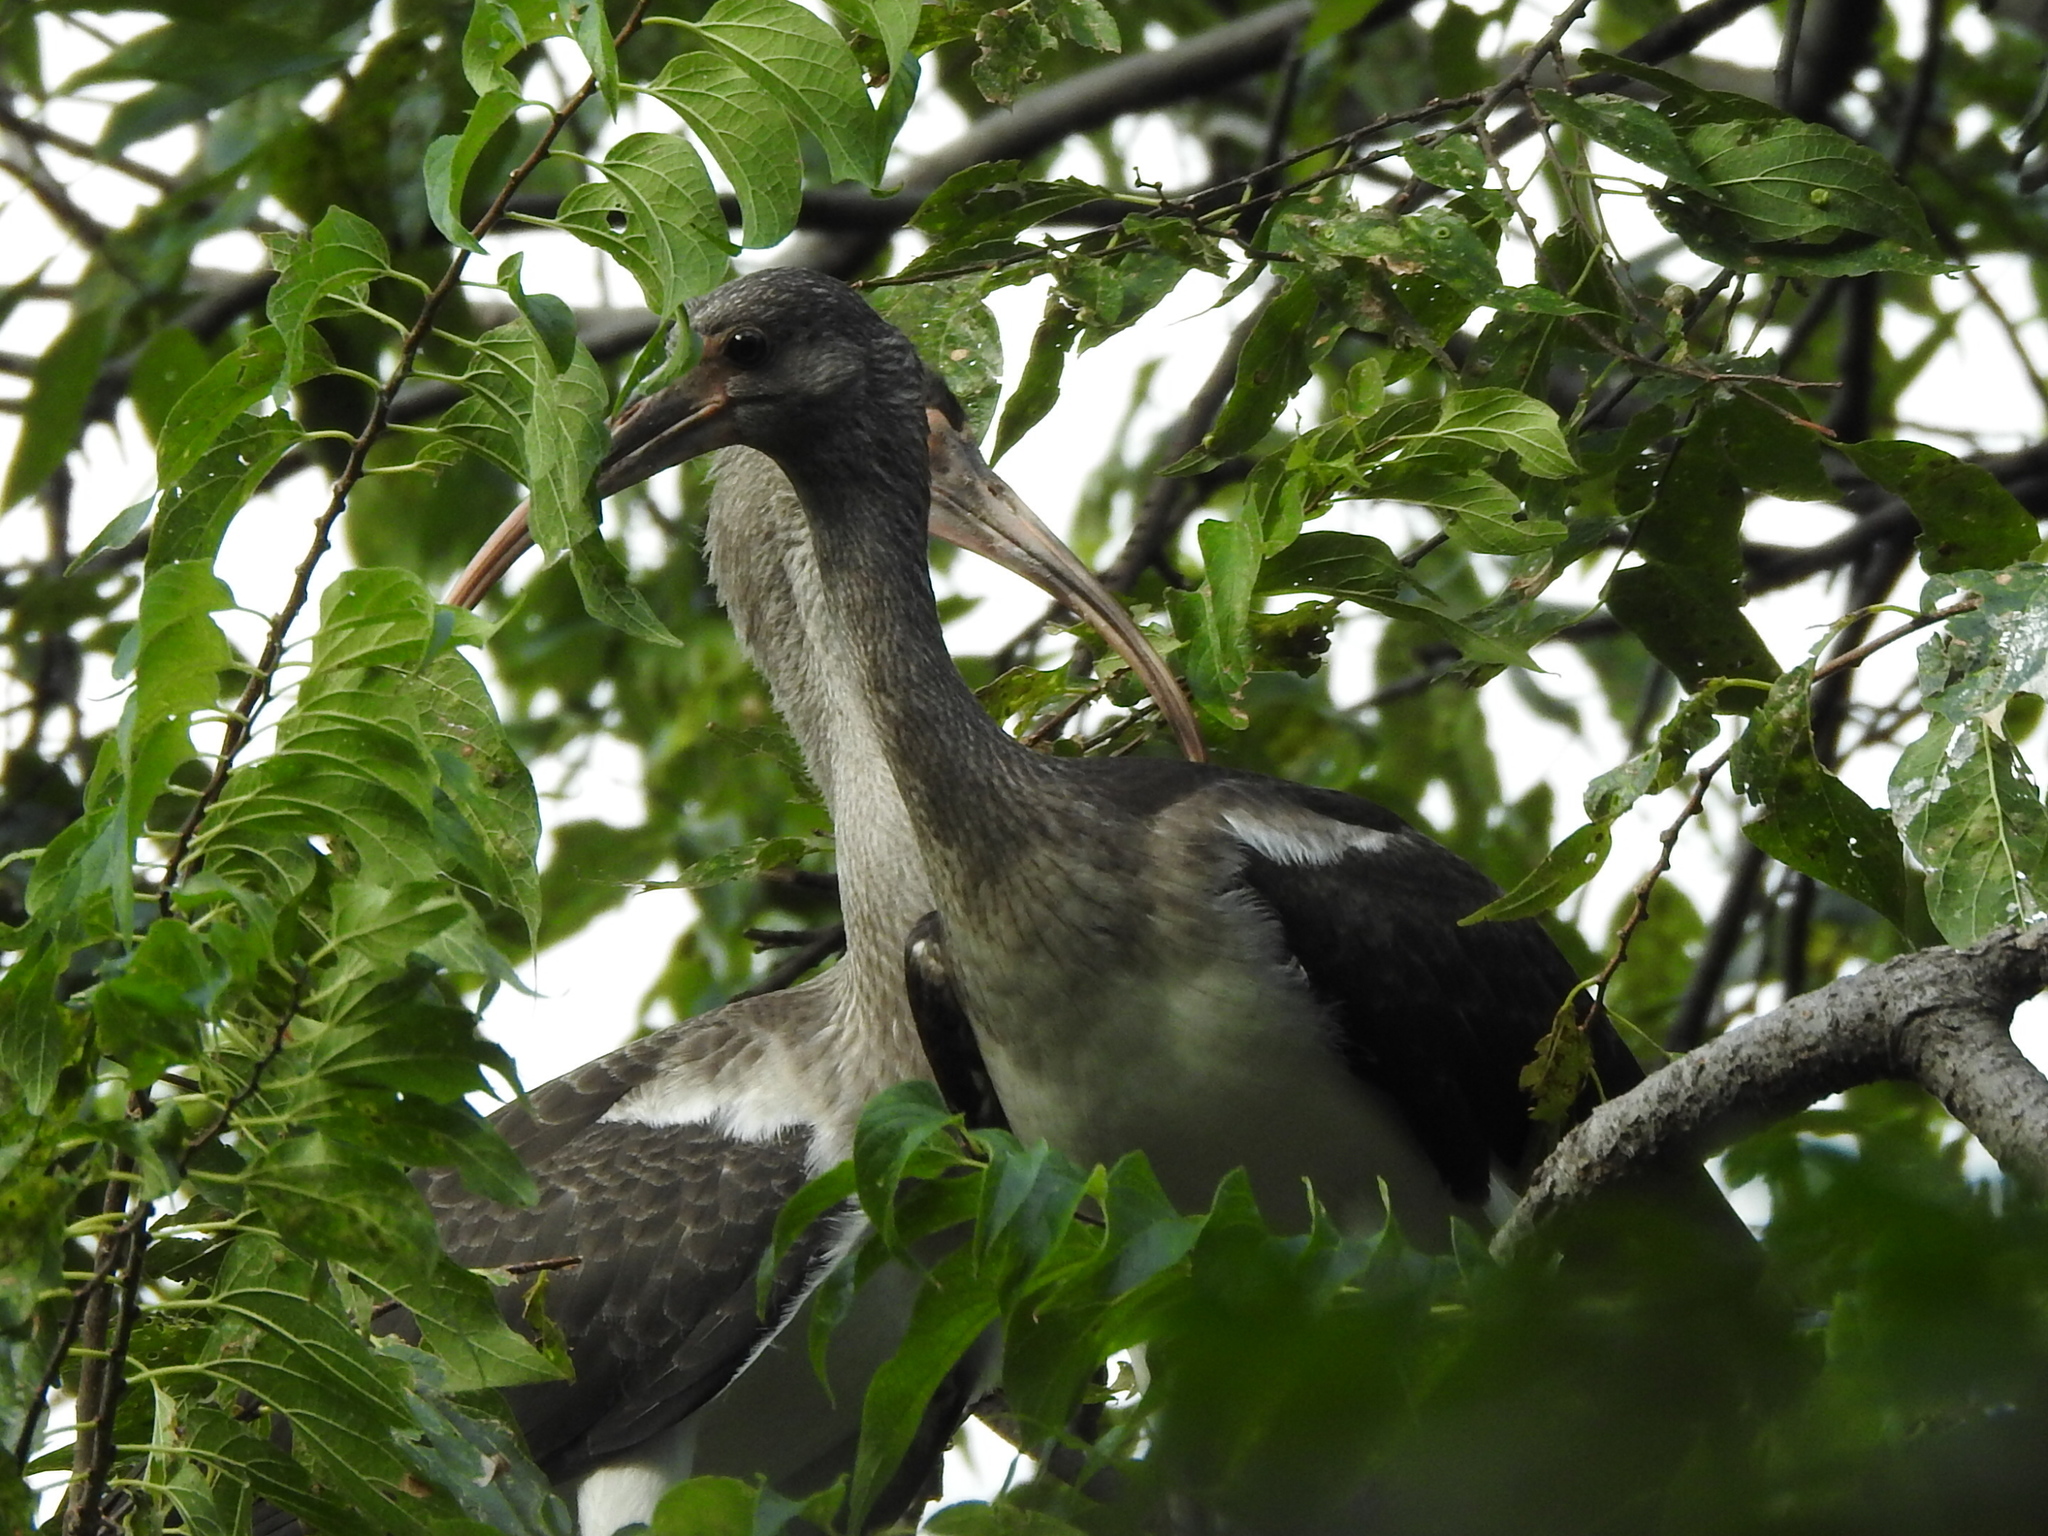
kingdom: Animalia
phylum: Chordata
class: Aves
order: Pelecaniformes
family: Threskiornithidae
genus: Eudocimus
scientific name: Eudocimus albus
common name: White ibis
